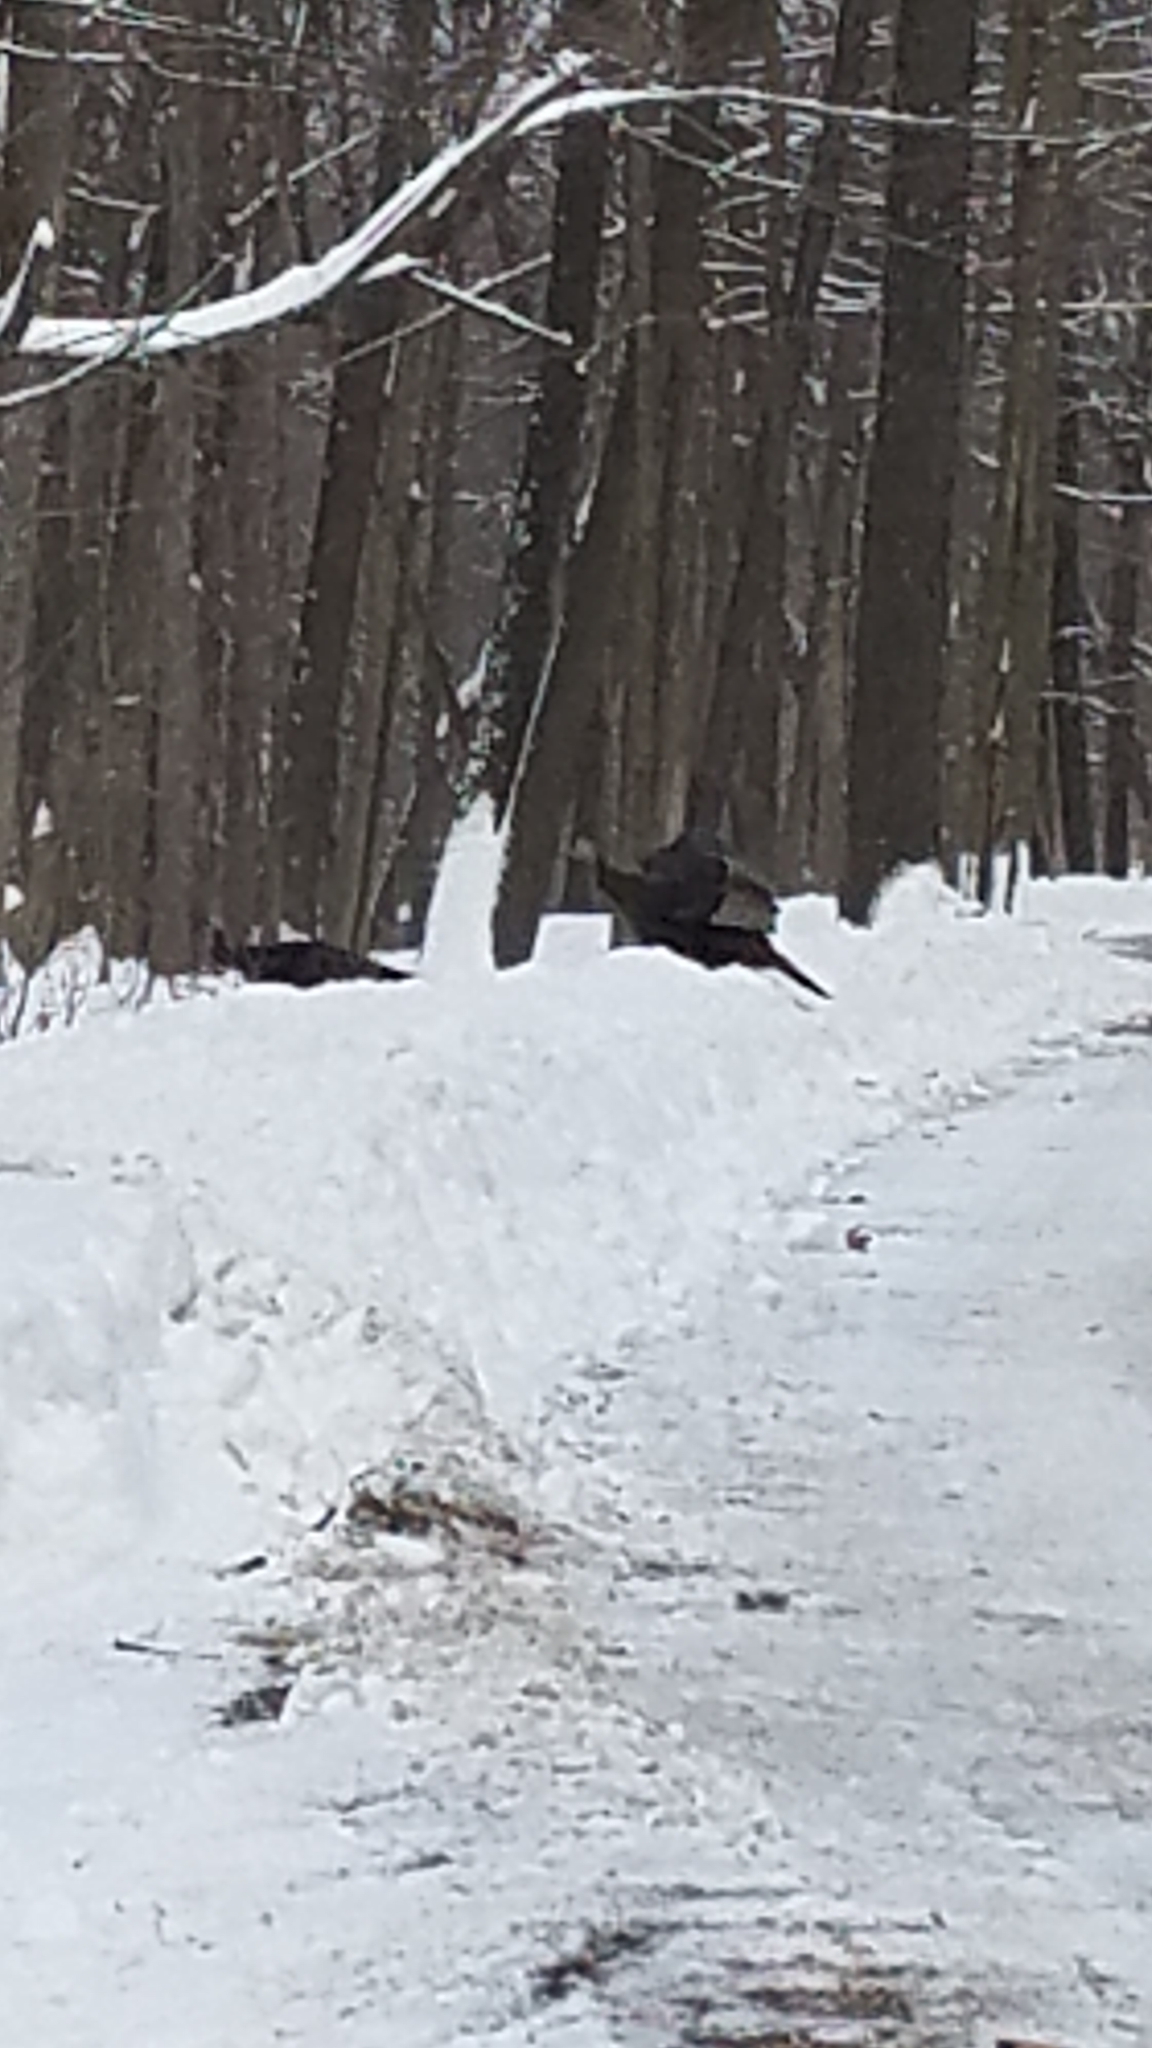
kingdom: Animalia
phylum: Chordata
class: Aves
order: Galliformes
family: Phasianidae
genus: Meleagris
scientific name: Meleagris gallopavo
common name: Wild turkey
